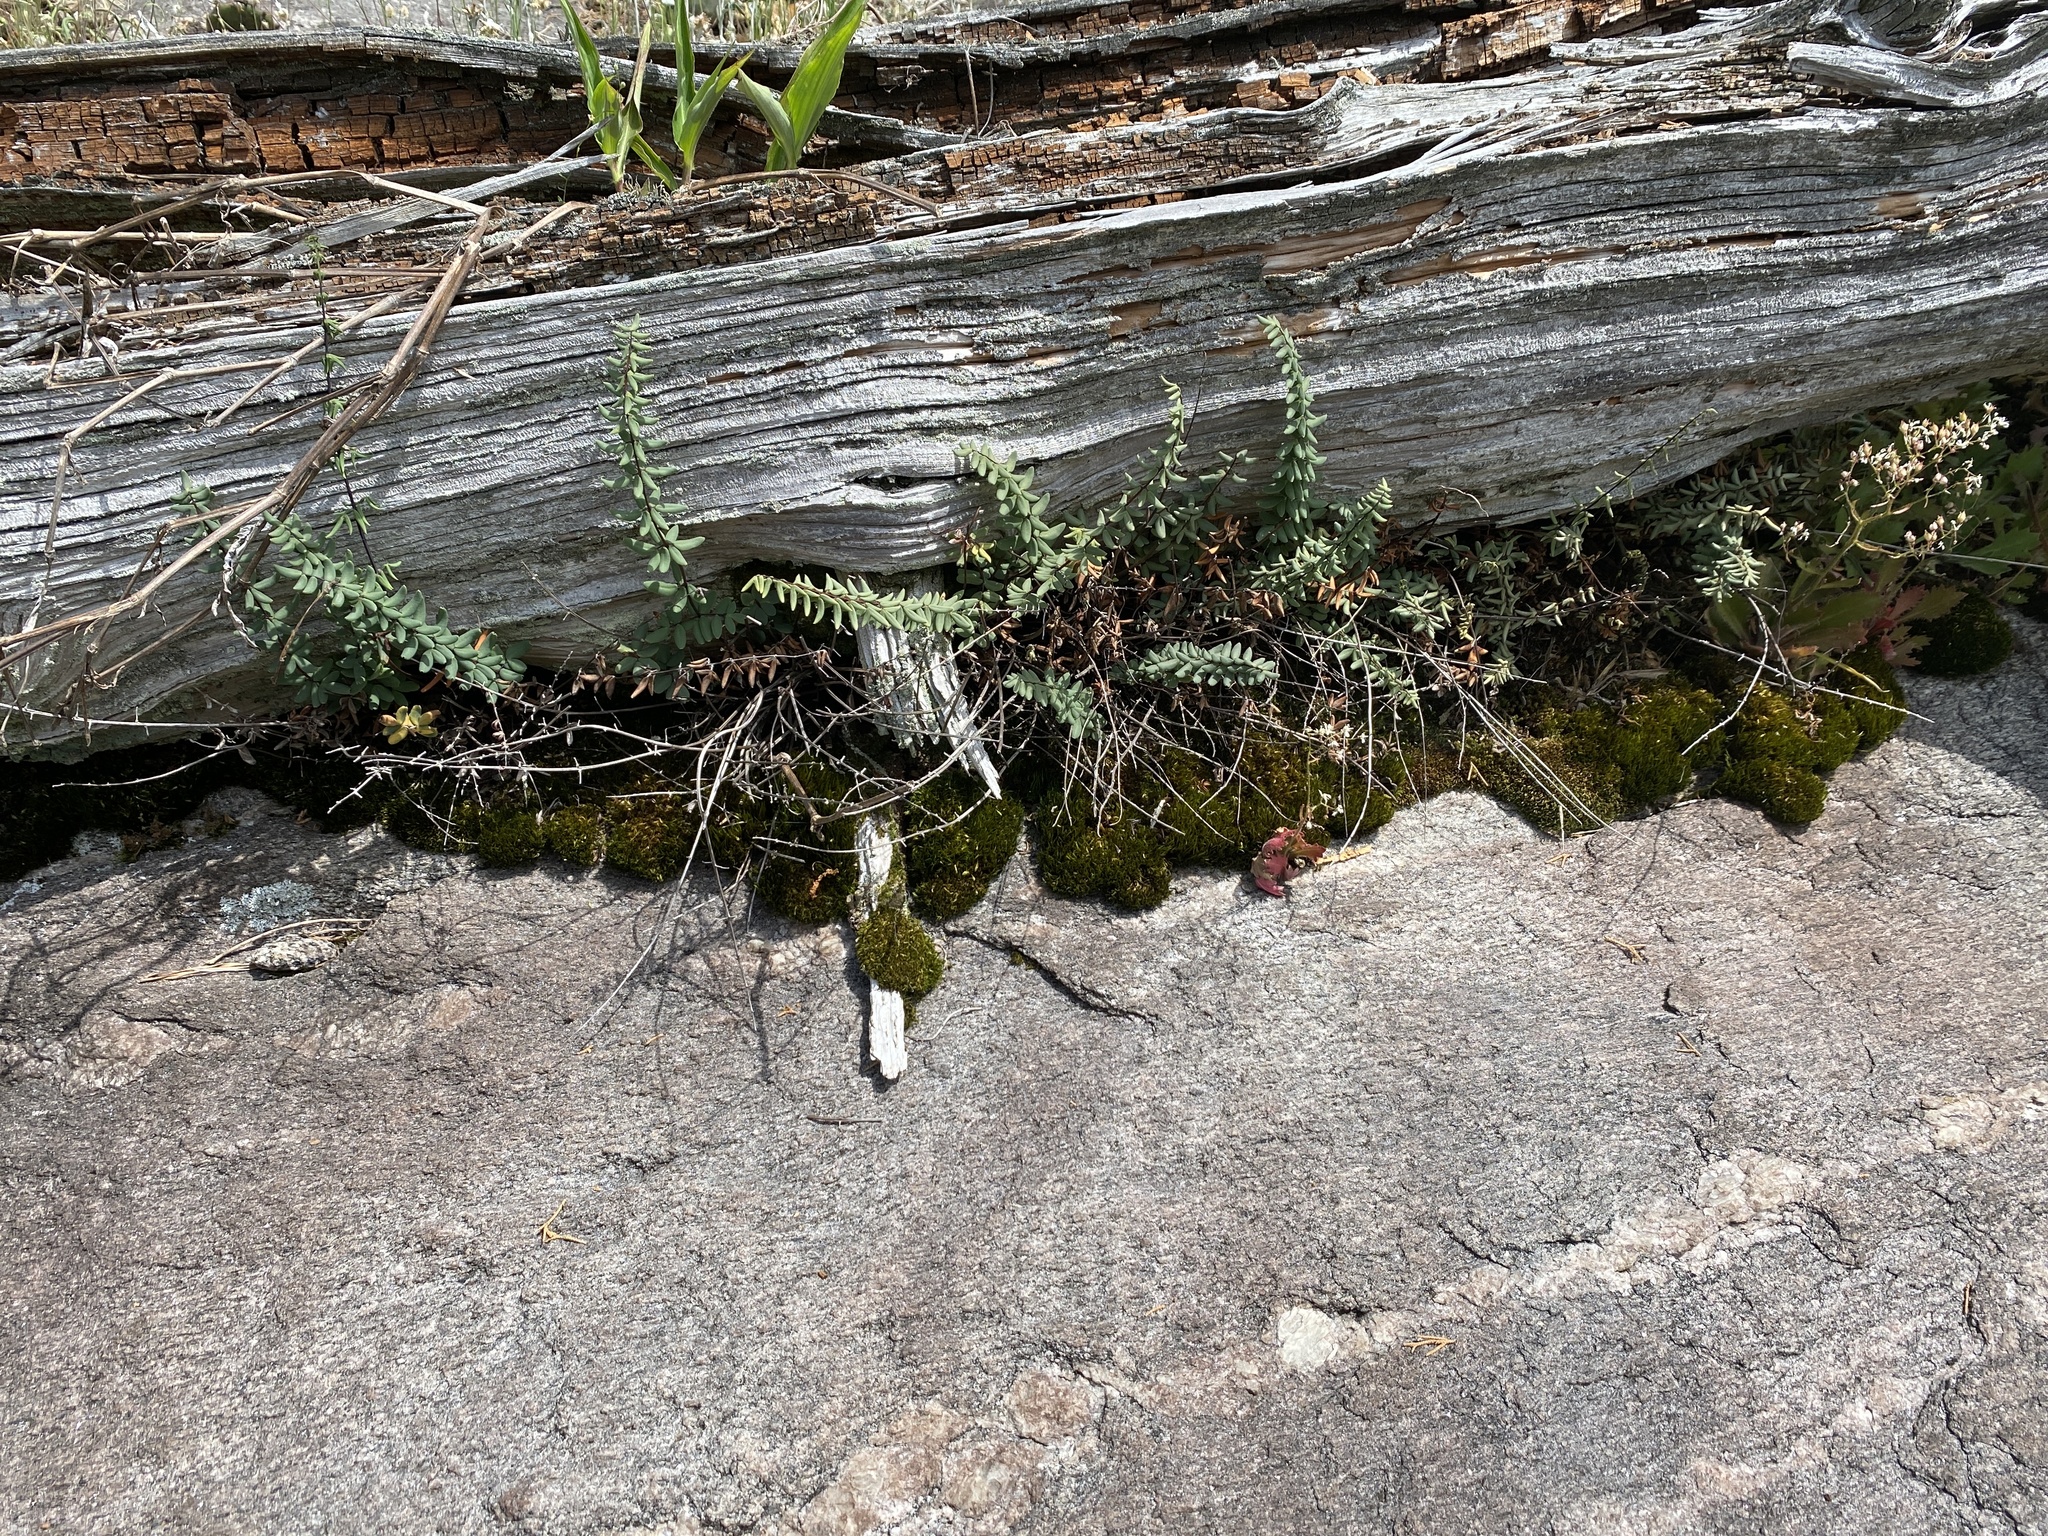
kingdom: Plantae
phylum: Tracheophyta
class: Polypodiopsida
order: Polypodiales
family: Pteridaceae
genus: Pellaea
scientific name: Pellaea wrightiana
